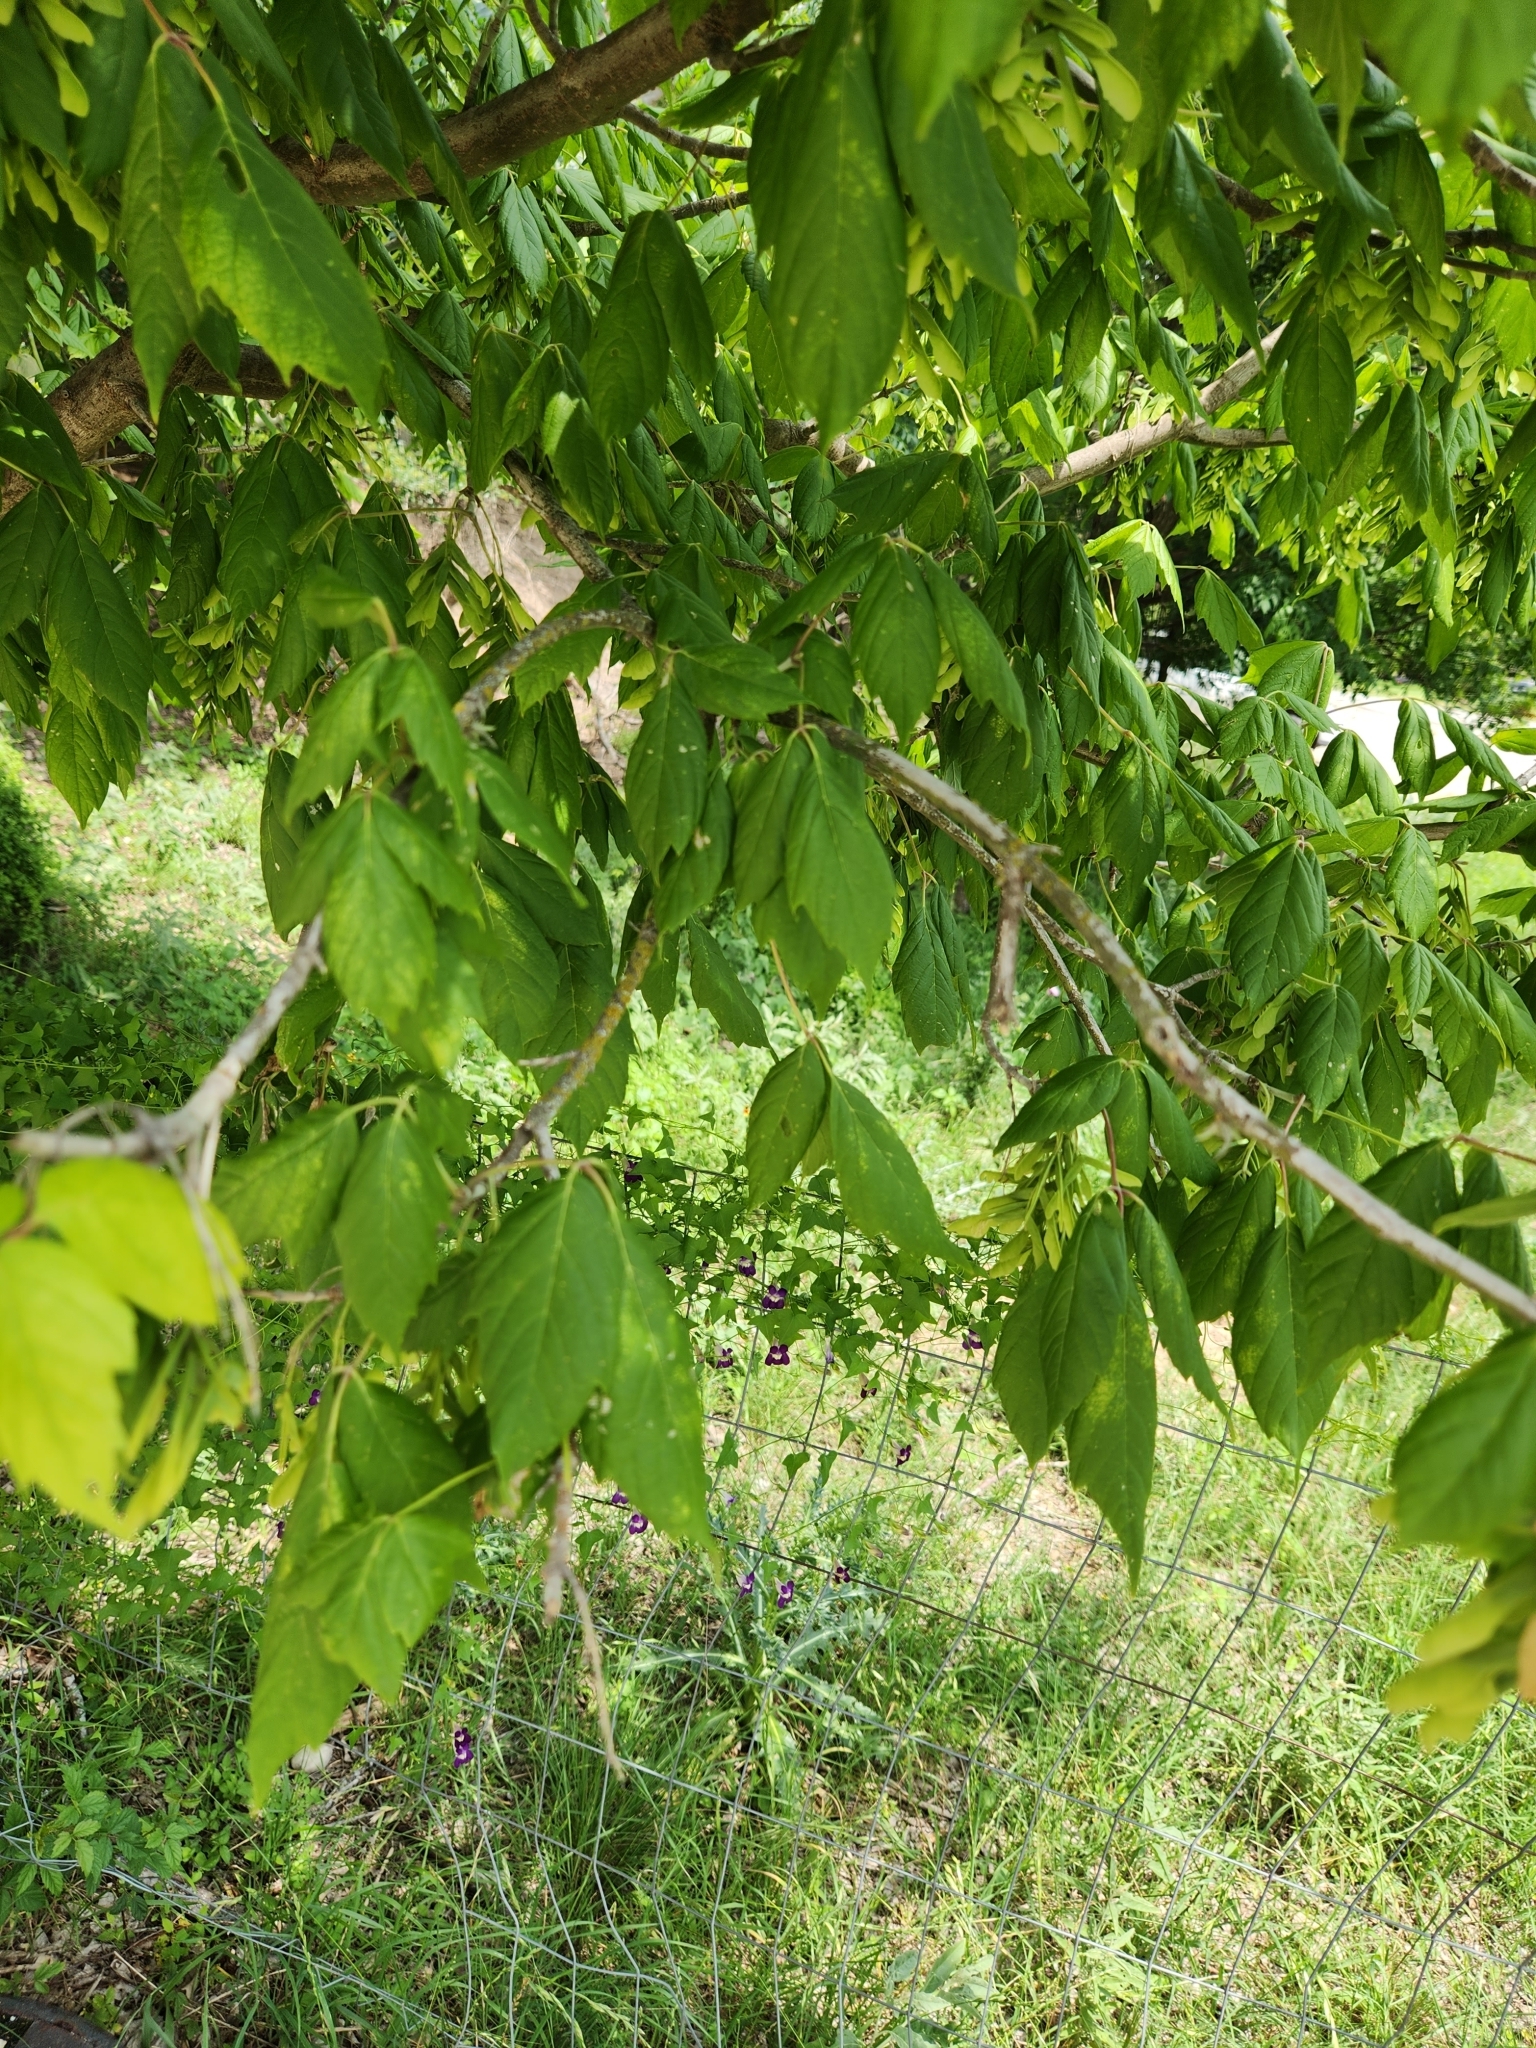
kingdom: Plantae
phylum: Tracheophyta
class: Magnoliopsida
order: Sapindales
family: Sapindaceae
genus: Acer
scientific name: Acer negundo
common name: Ashleaf maple
